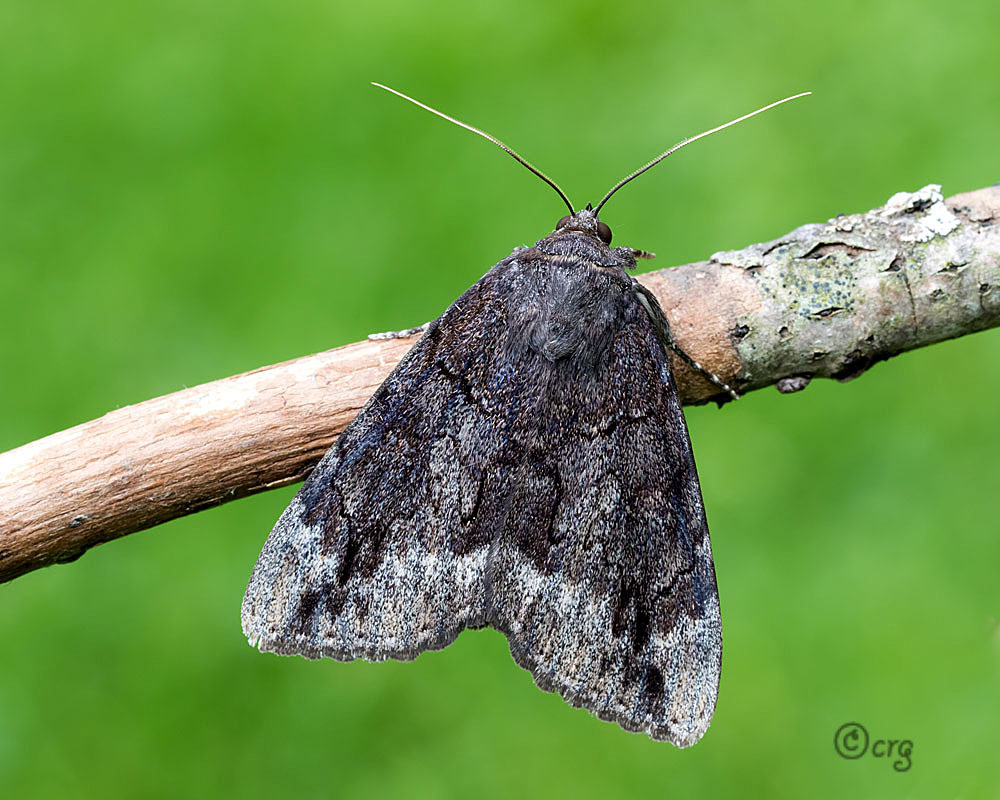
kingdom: Animalia
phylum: Arthropoda
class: Insecta
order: Lepidoptera
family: Erebidae
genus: Catocala
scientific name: Catocala residua
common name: Residua underwing
